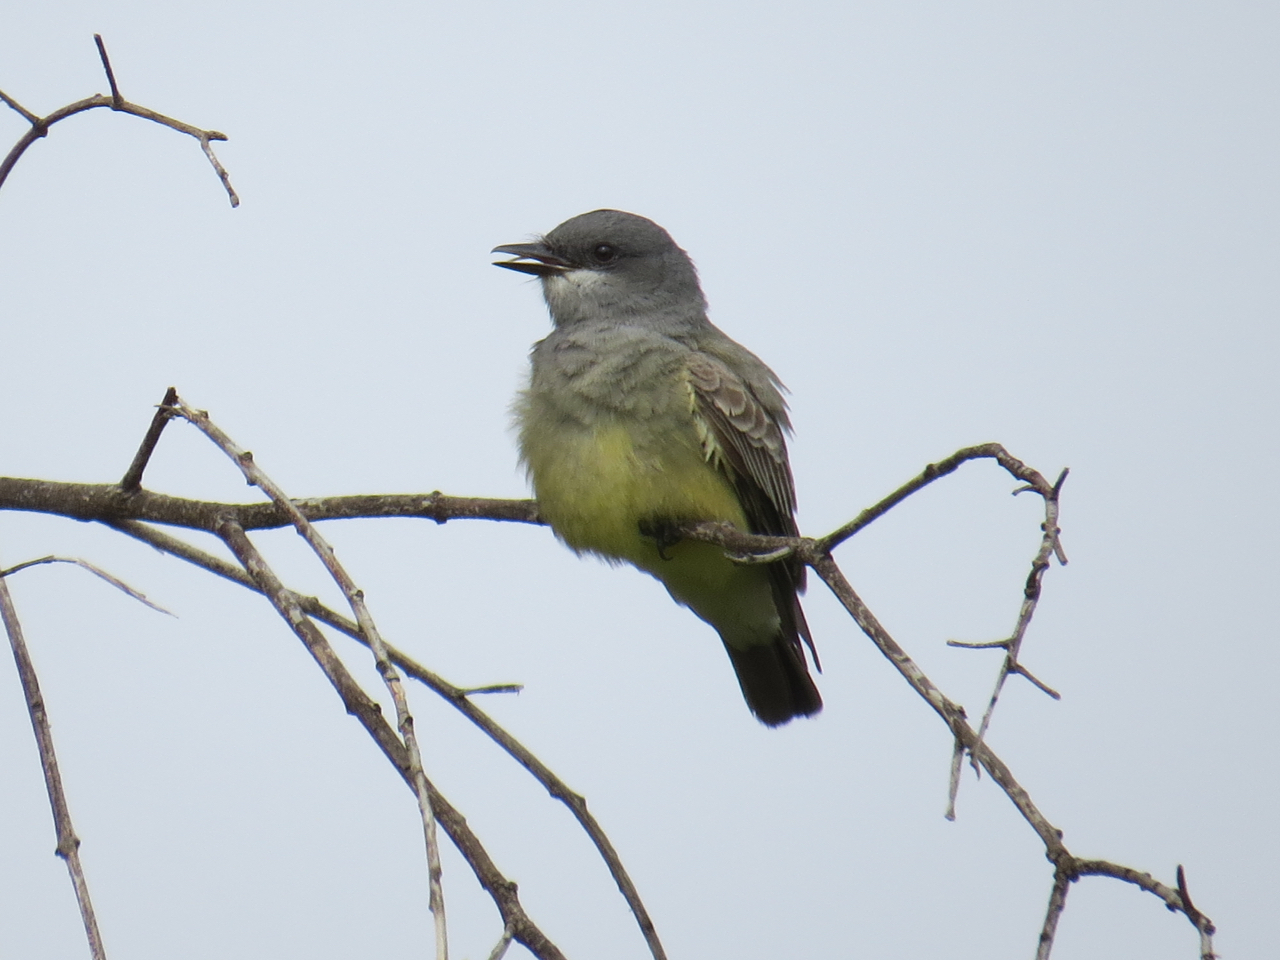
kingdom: Animalia
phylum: Chordata
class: Aves
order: Passeriformes
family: Tyrannidae
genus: Tyrannus
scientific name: Tyrannus vociferans
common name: Cassin's kingbird
